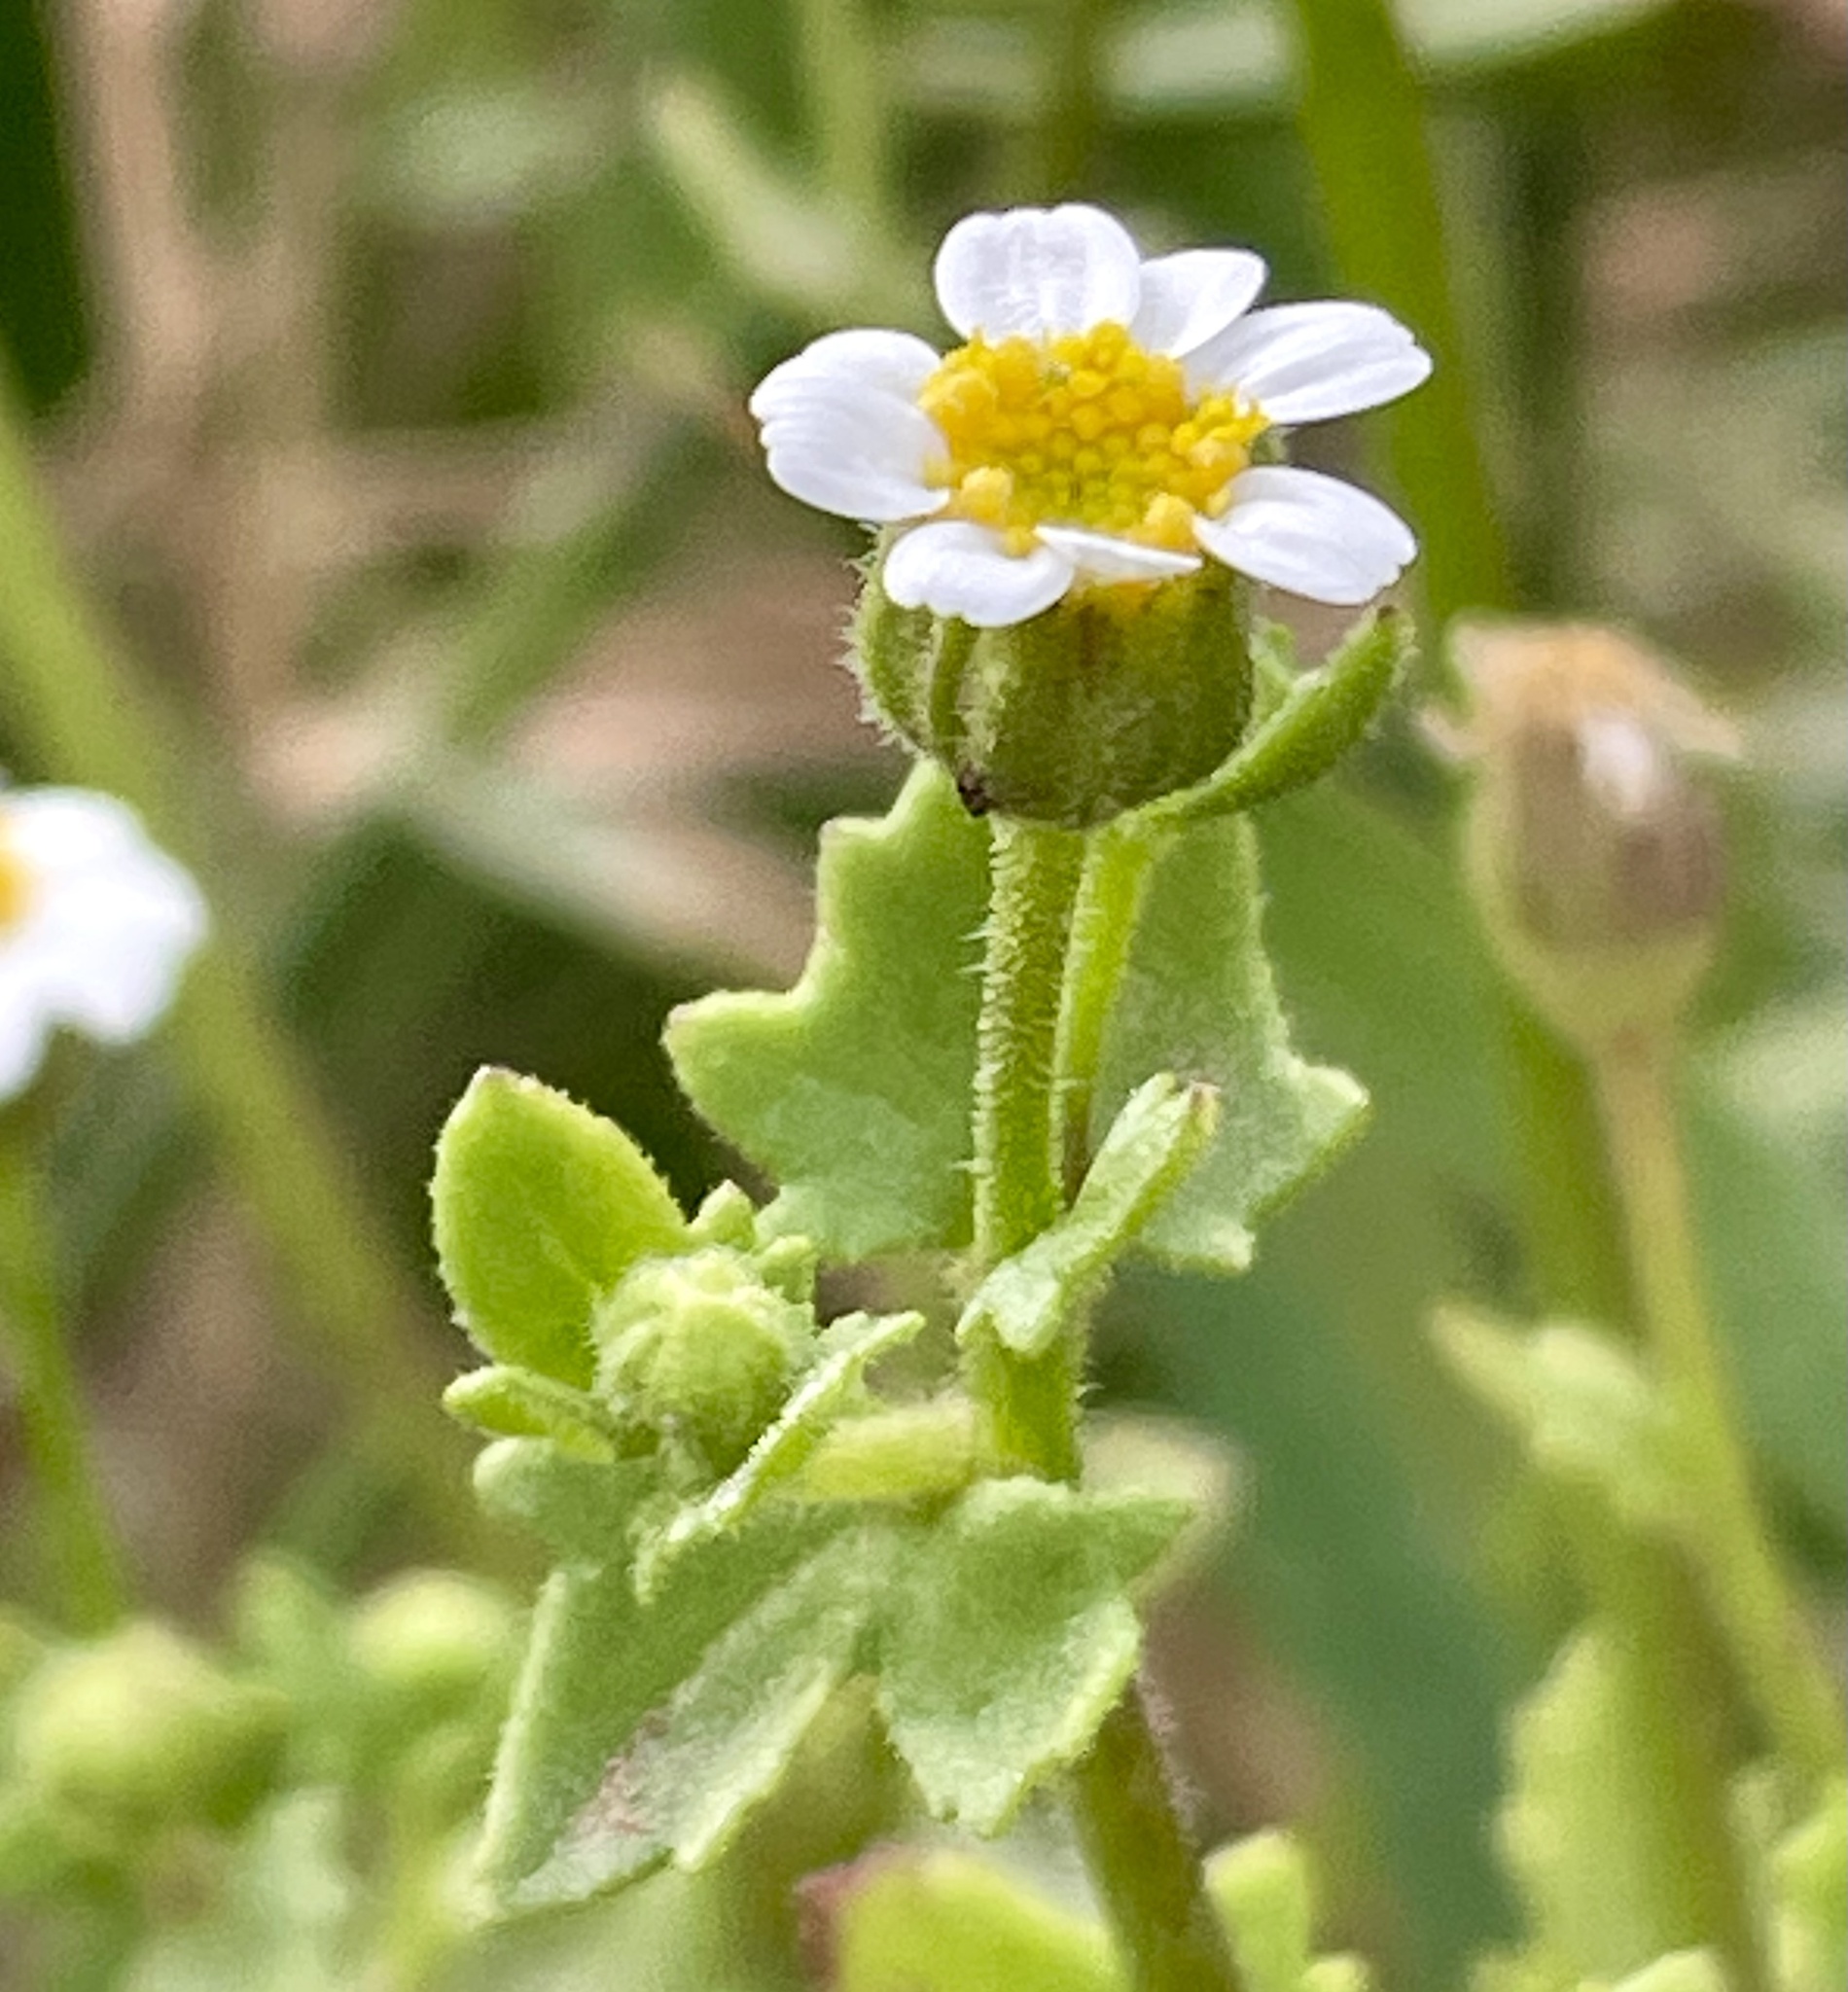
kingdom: Plantae
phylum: Tracheophyta
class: Magnoliopsida
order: Asterales
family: Asteraceae
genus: Laphamia
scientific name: Laphamia emoryi
